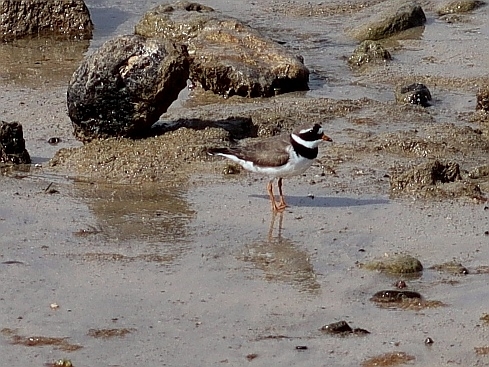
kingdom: Animalia
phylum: Chordata
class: Aves
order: Charadriiformes
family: Charadriidae
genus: Charadrius
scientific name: Charadrius hiaticula
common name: Common ringed plover
